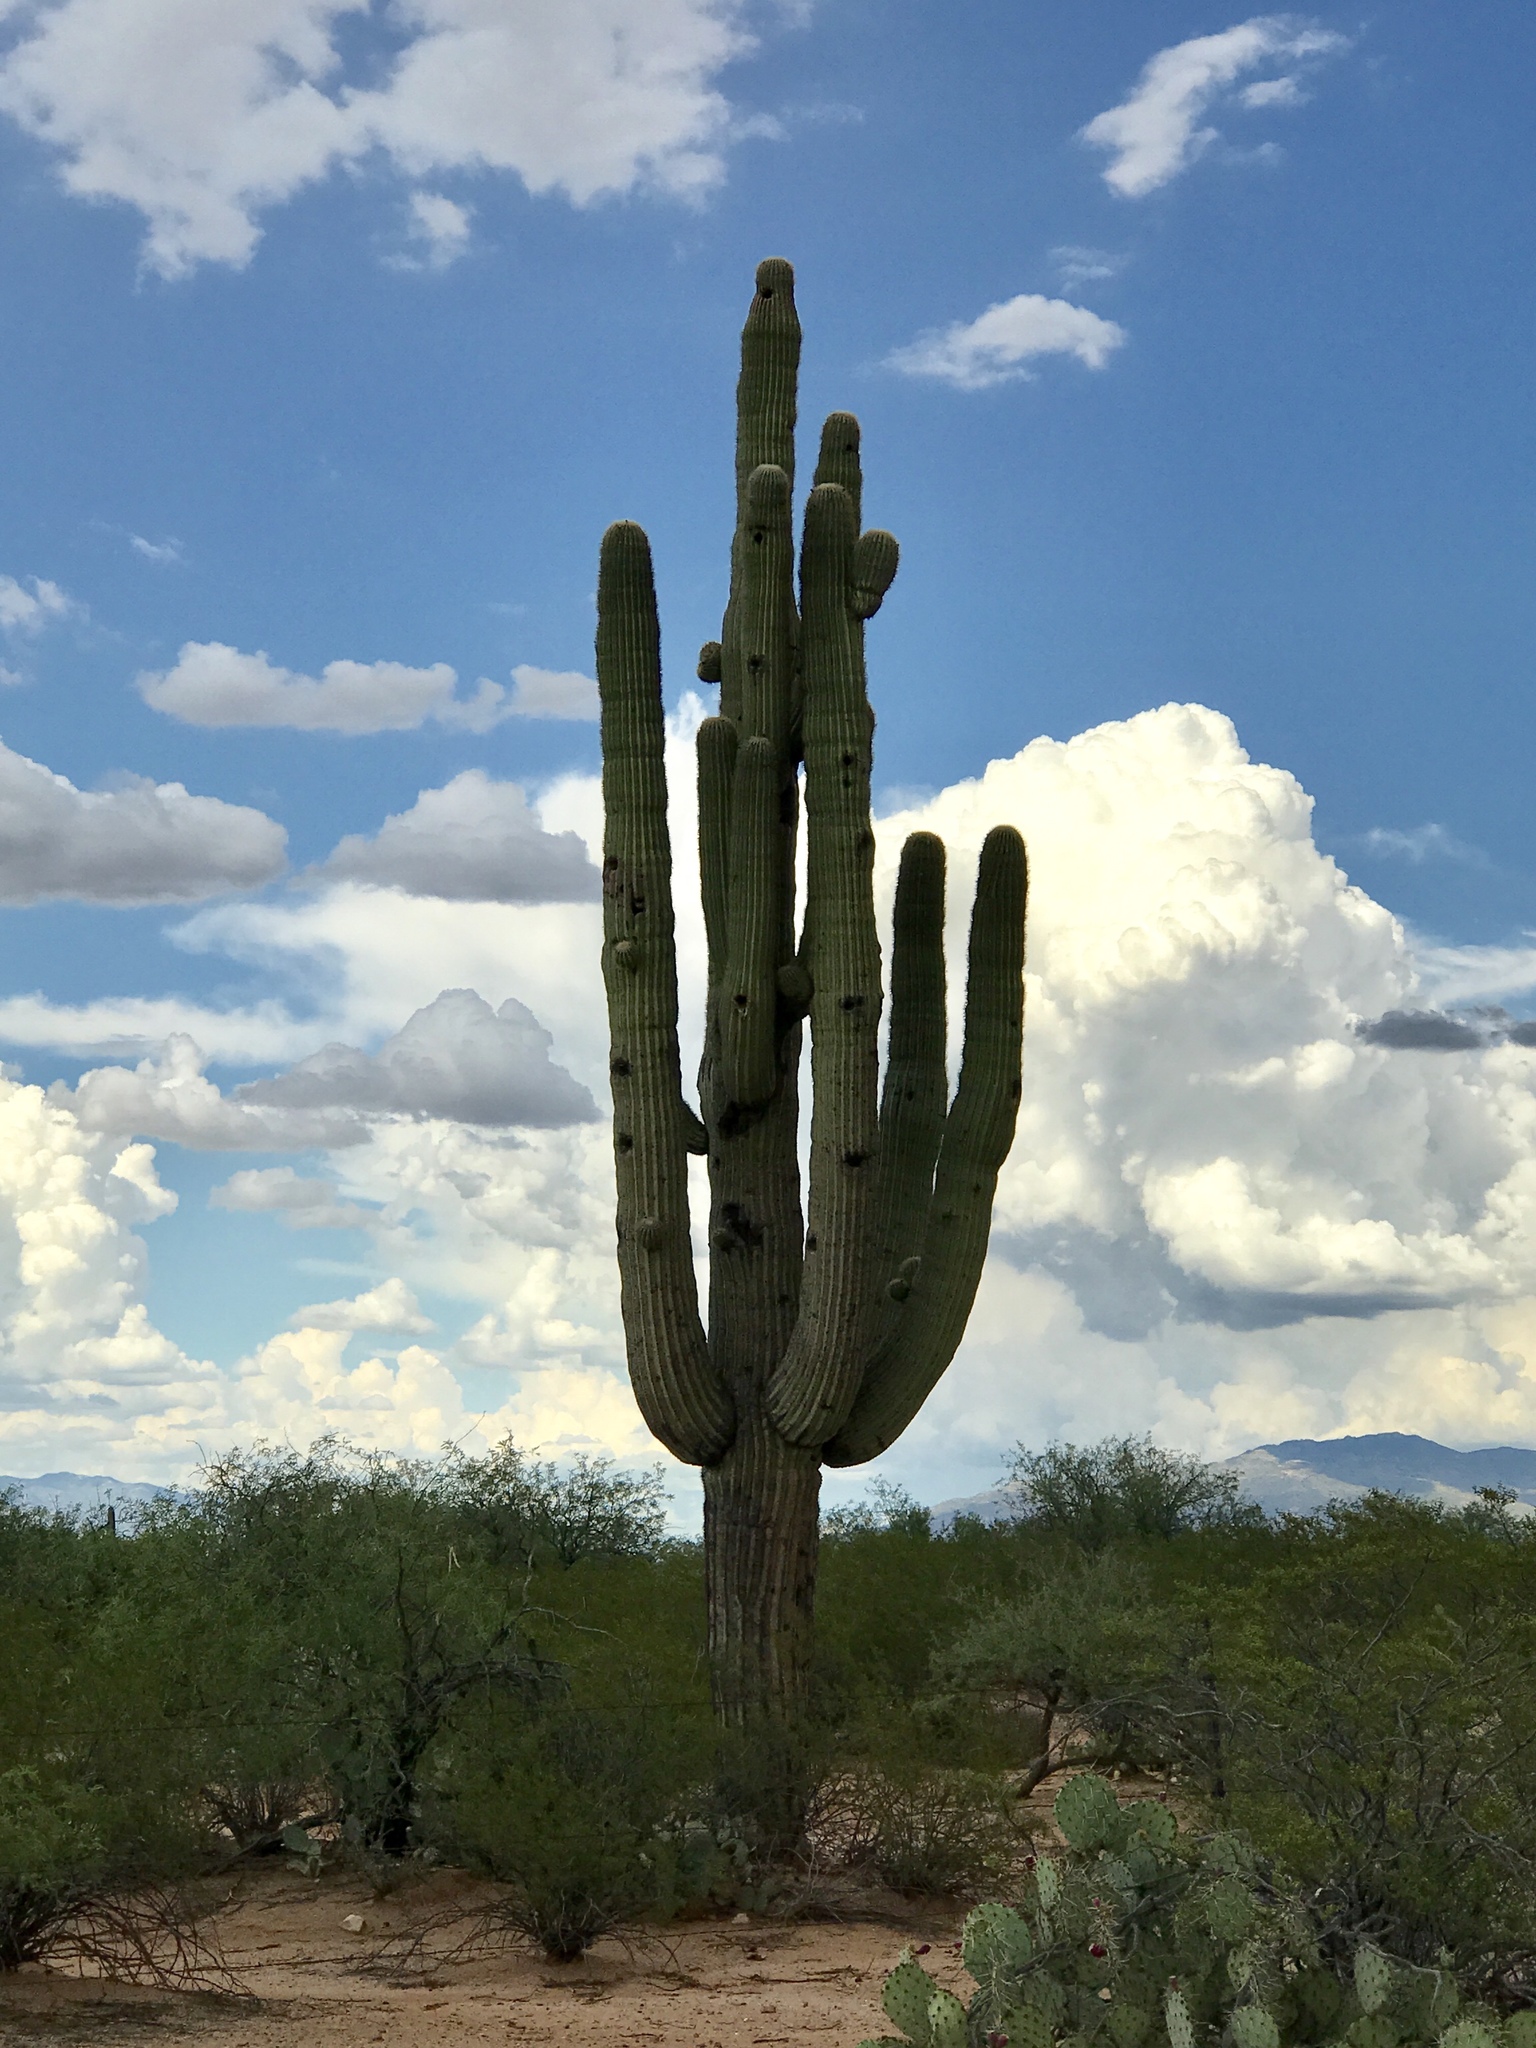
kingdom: Plantae
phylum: Tracheophyta
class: Magnoliopsida
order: Caryophyllales
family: Cactaceae
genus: Carnegiea
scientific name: Carnegiea gigantea
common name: Saguaro
